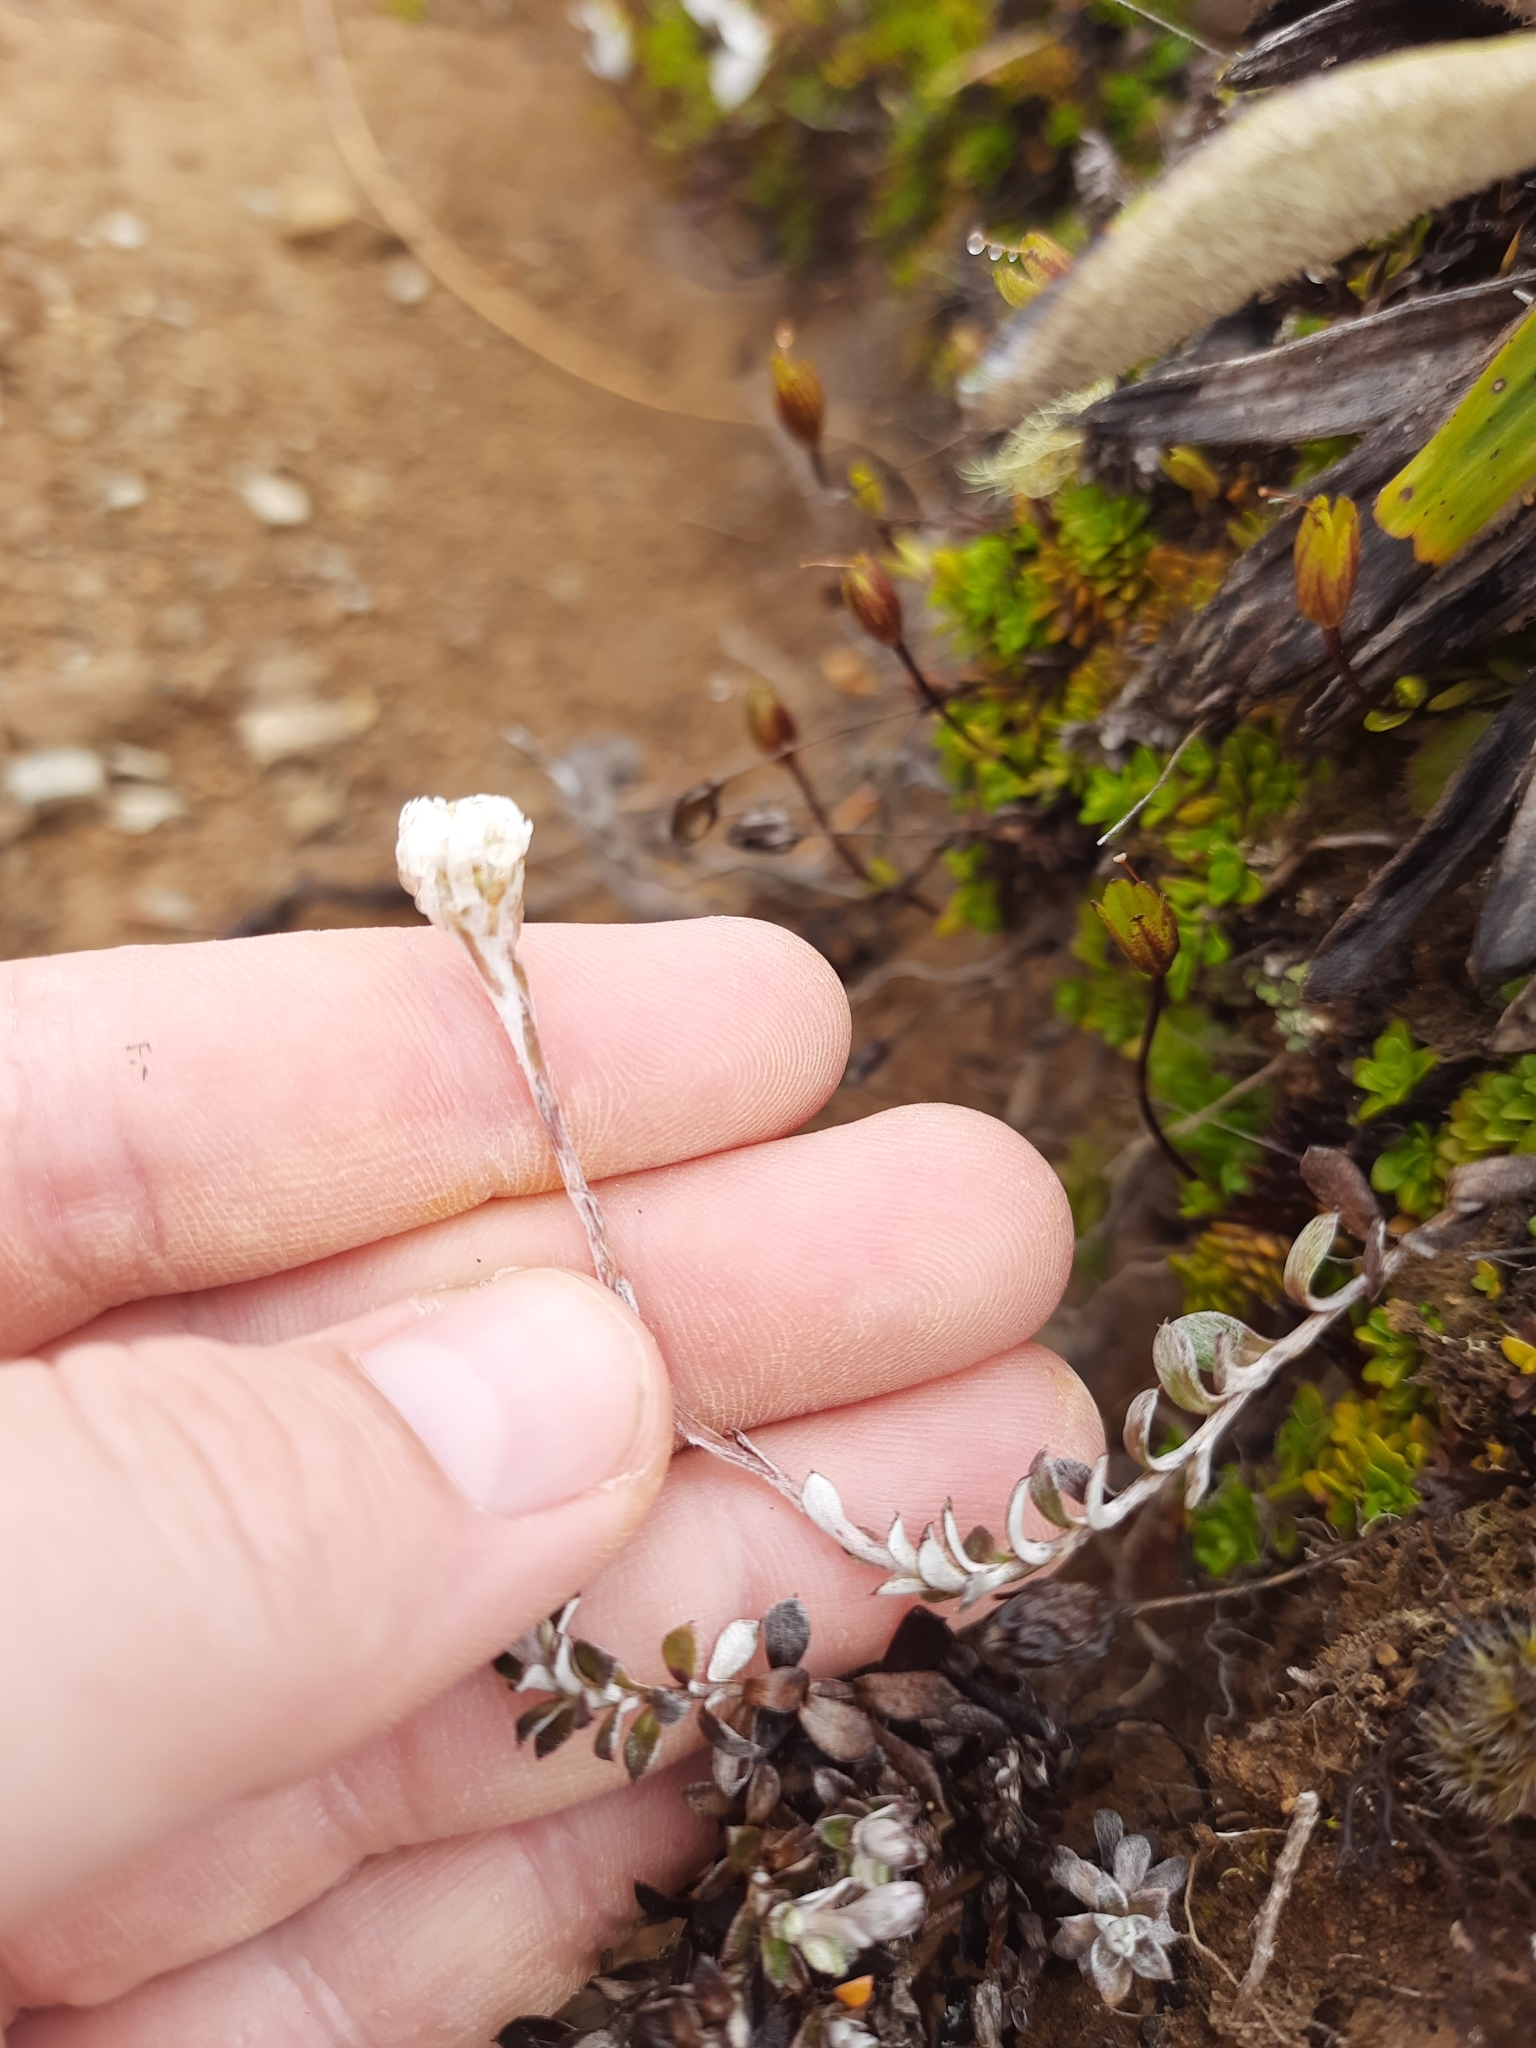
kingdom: Plantae
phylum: Tracheophyta
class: Magnoliopsida
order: Asterales
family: Asteraceae
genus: Anaphalioides
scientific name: Anaphalioides bellidioides
